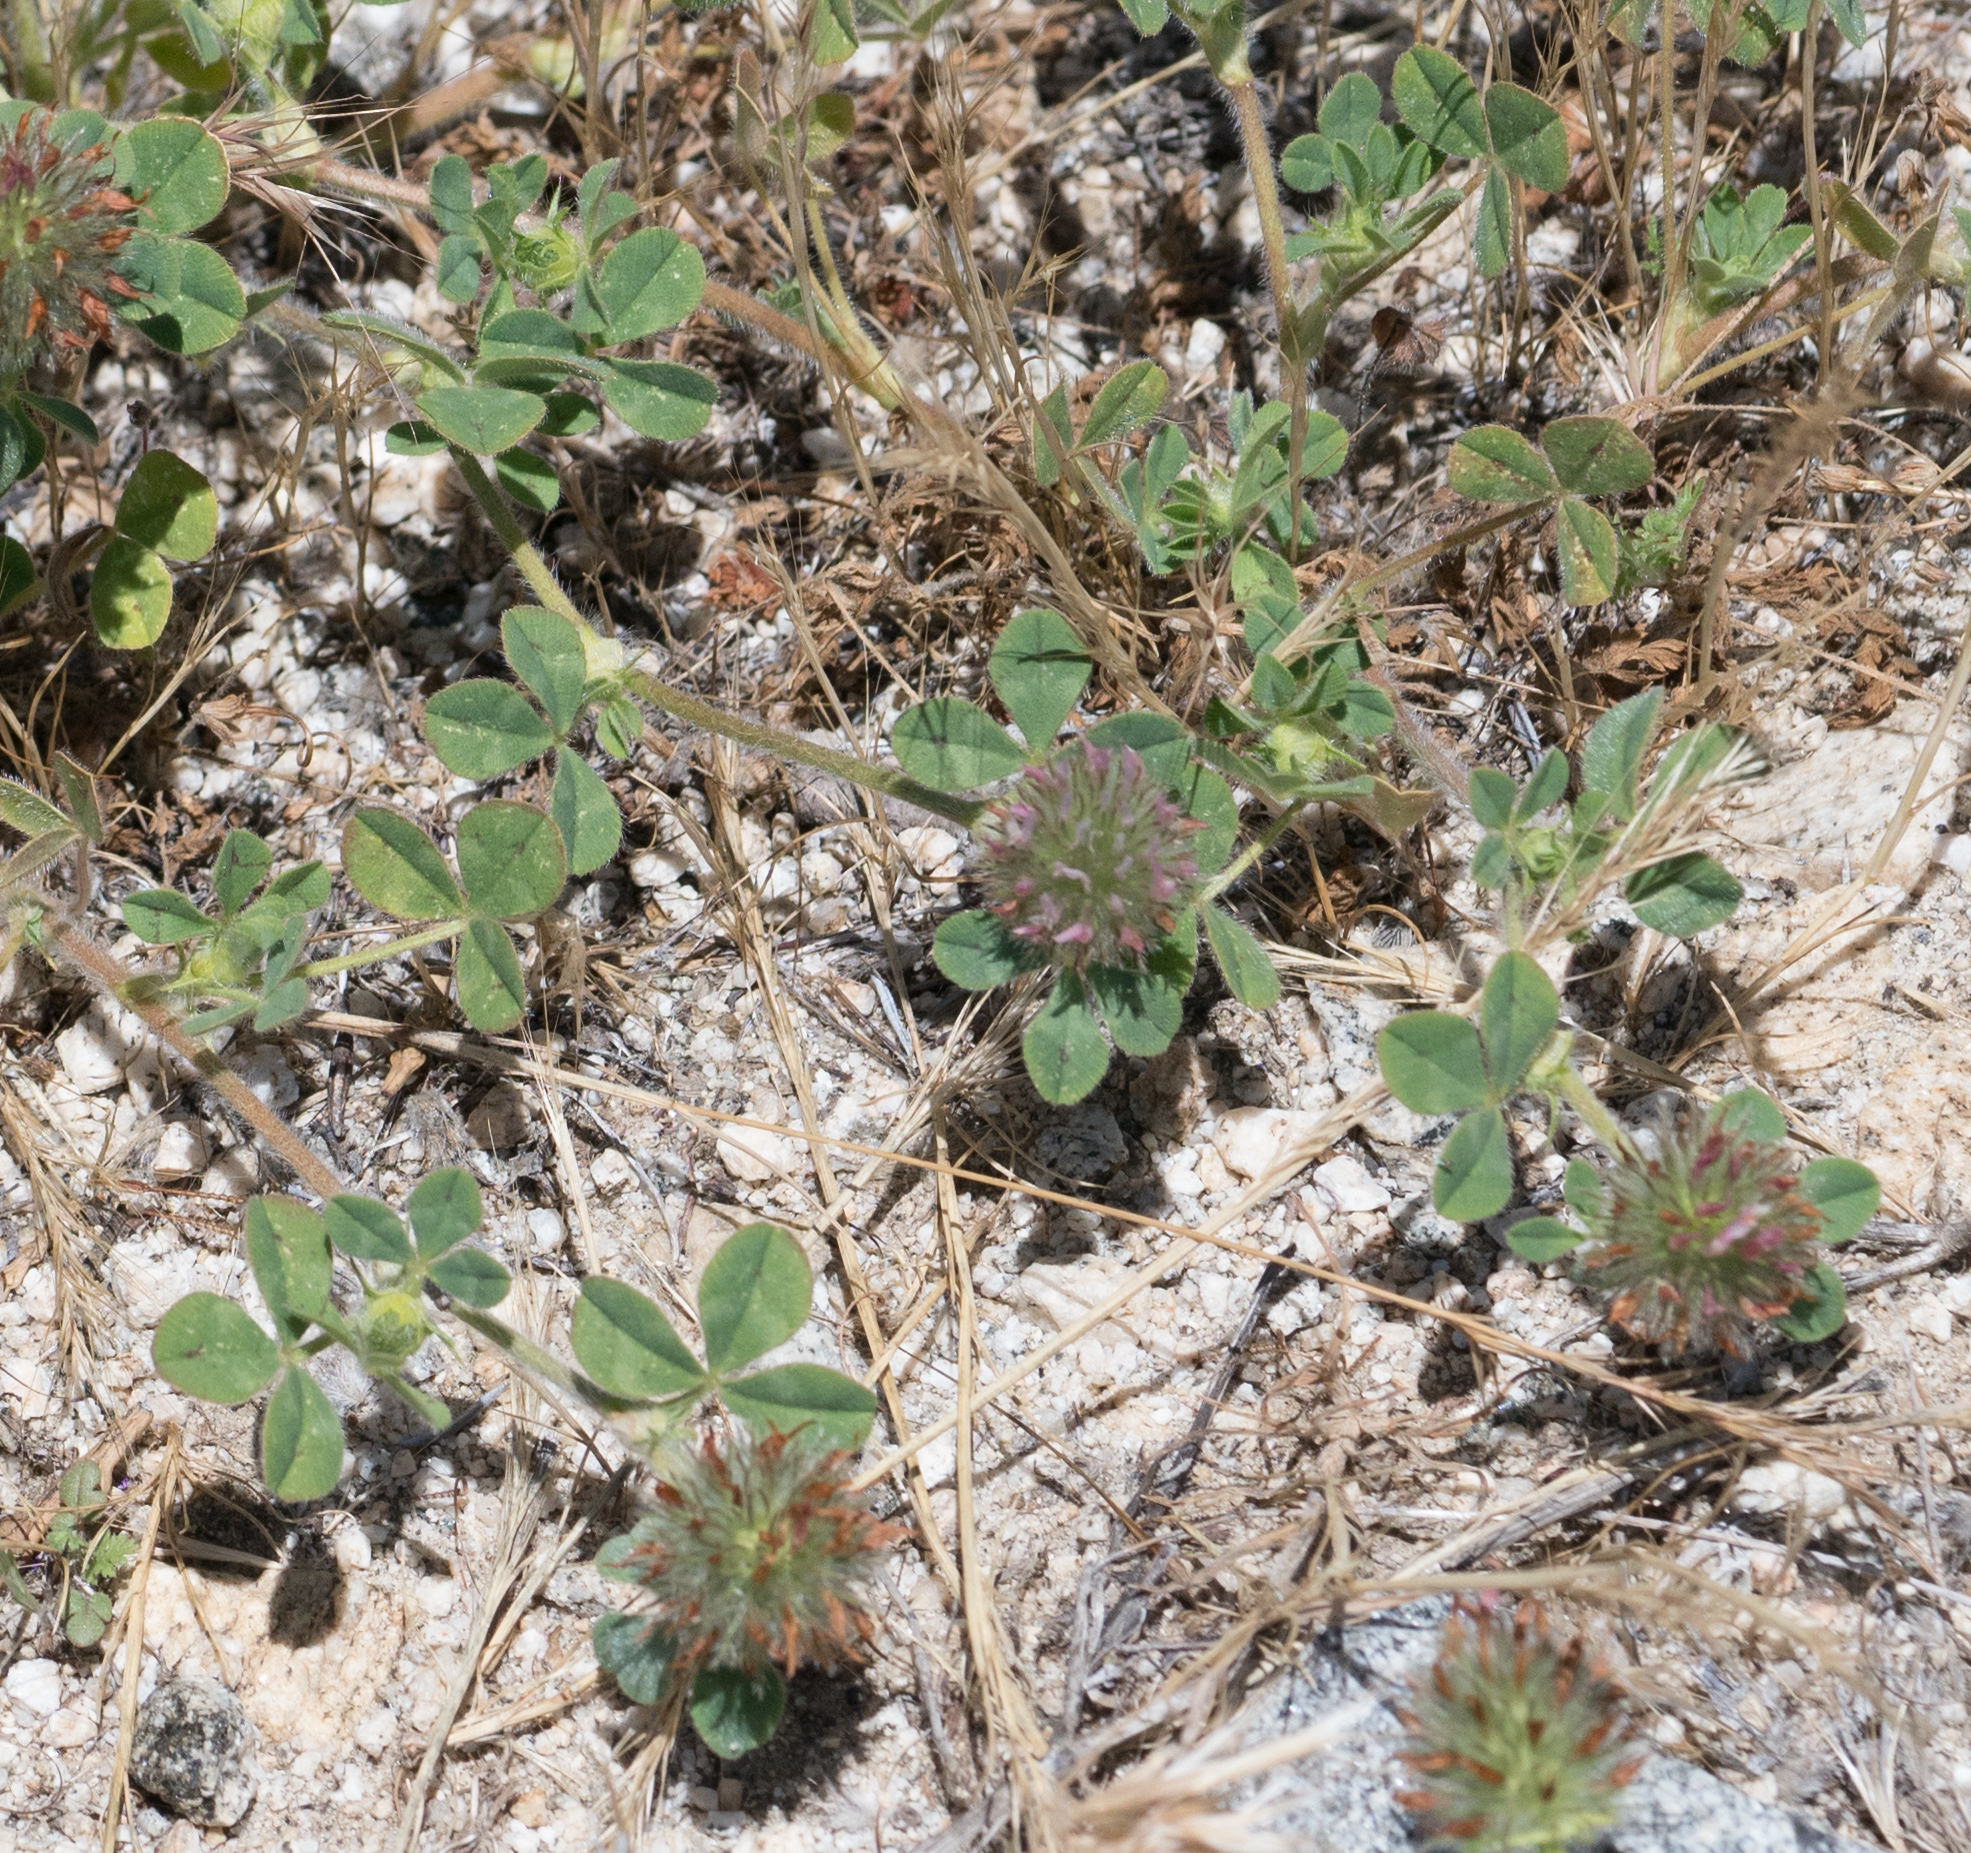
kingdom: Plantae
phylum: Tracheophyta
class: Magnoliopsida
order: Fabales
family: Fabaceae
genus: Trifolium
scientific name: Trifolium hirtum
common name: Rose clover
